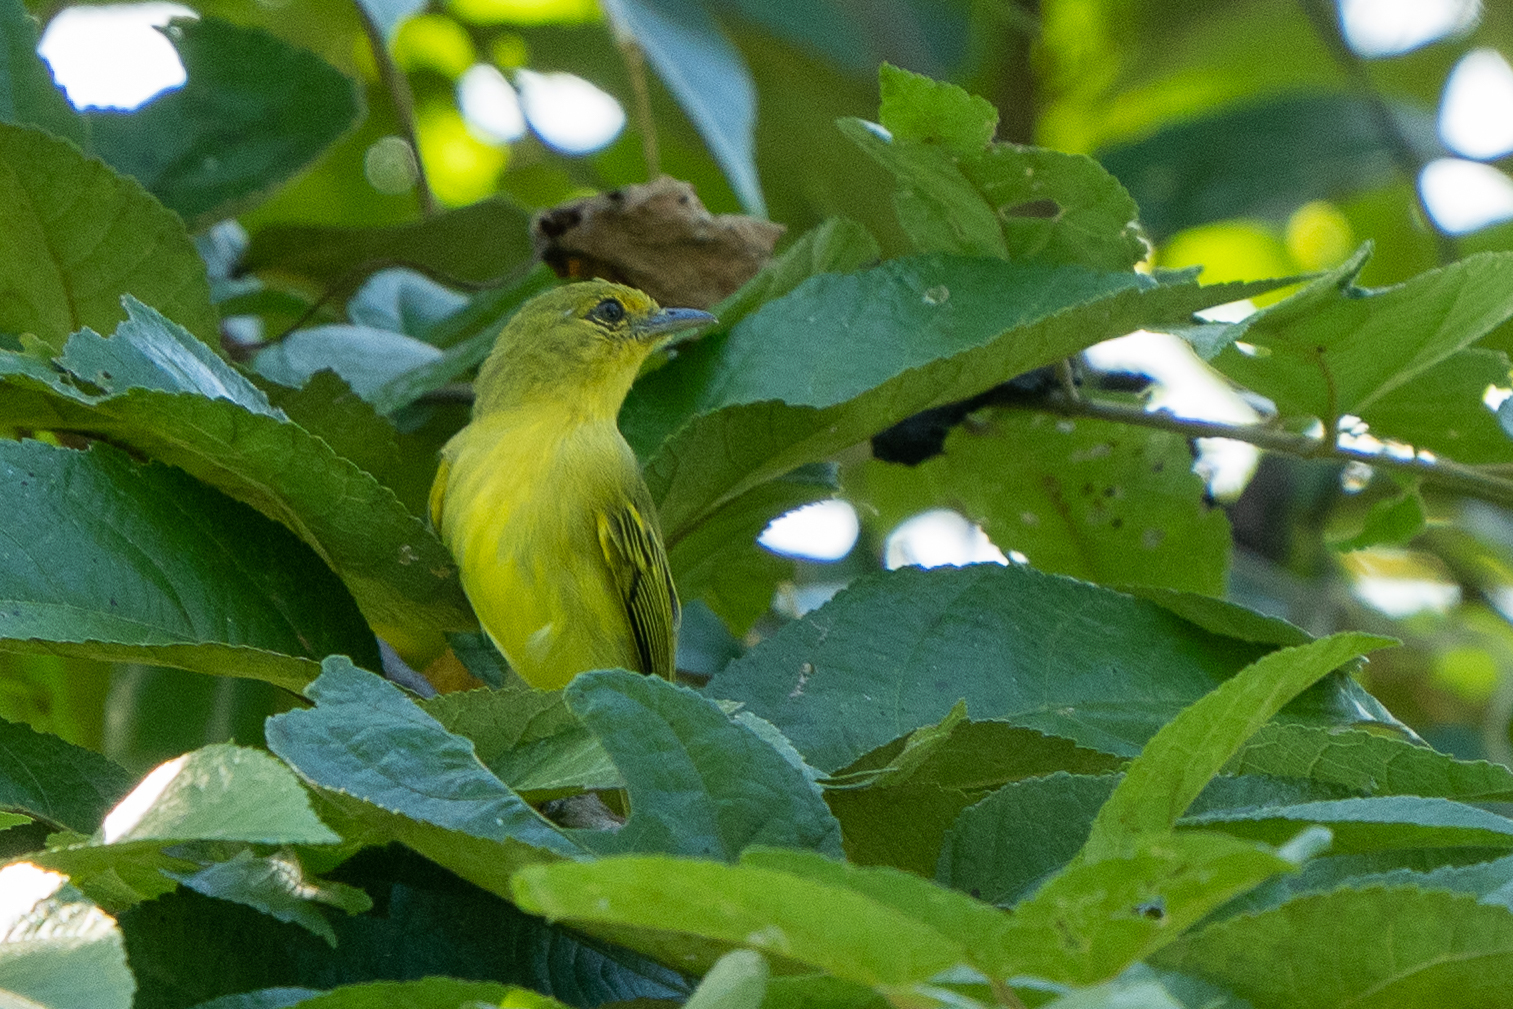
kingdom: Animalia
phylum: Chordata
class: Aves
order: Passeriformes
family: Tyrannidae
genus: Tolmomyias
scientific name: Tolmomyias flaviventris
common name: Ochre-lored flatbill
